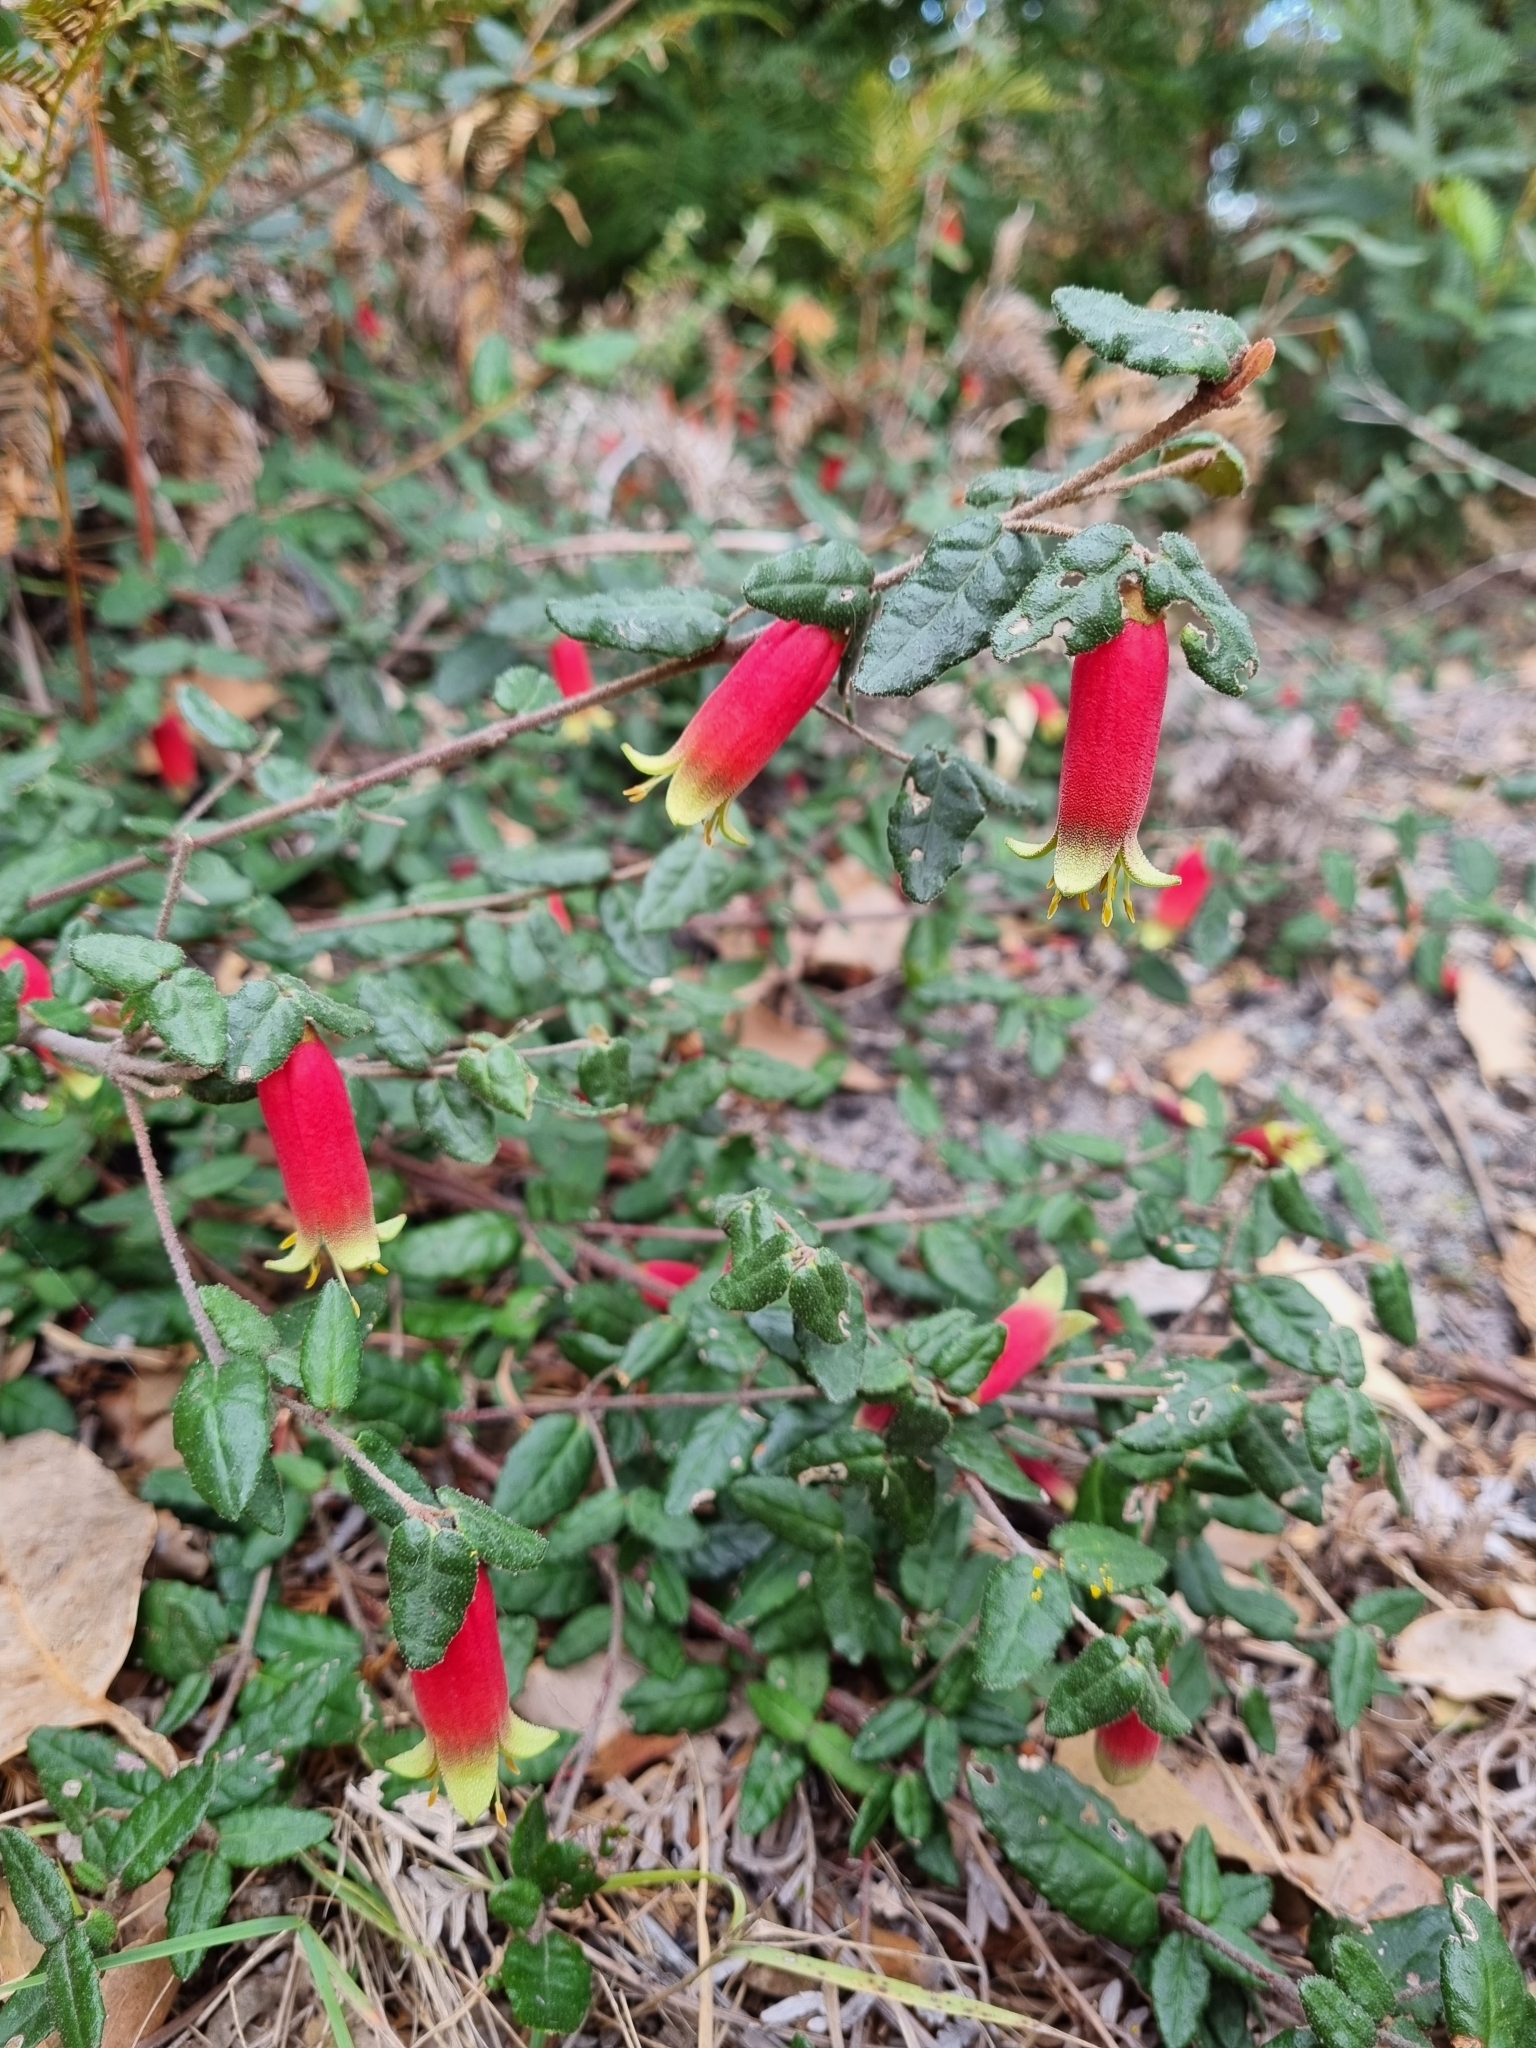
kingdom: Plantae
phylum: Tracheophyta
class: Magnoliopsida
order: Sapindales
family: Rutaceae
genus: Correa
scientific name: Correa reflexa
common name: Common correa
